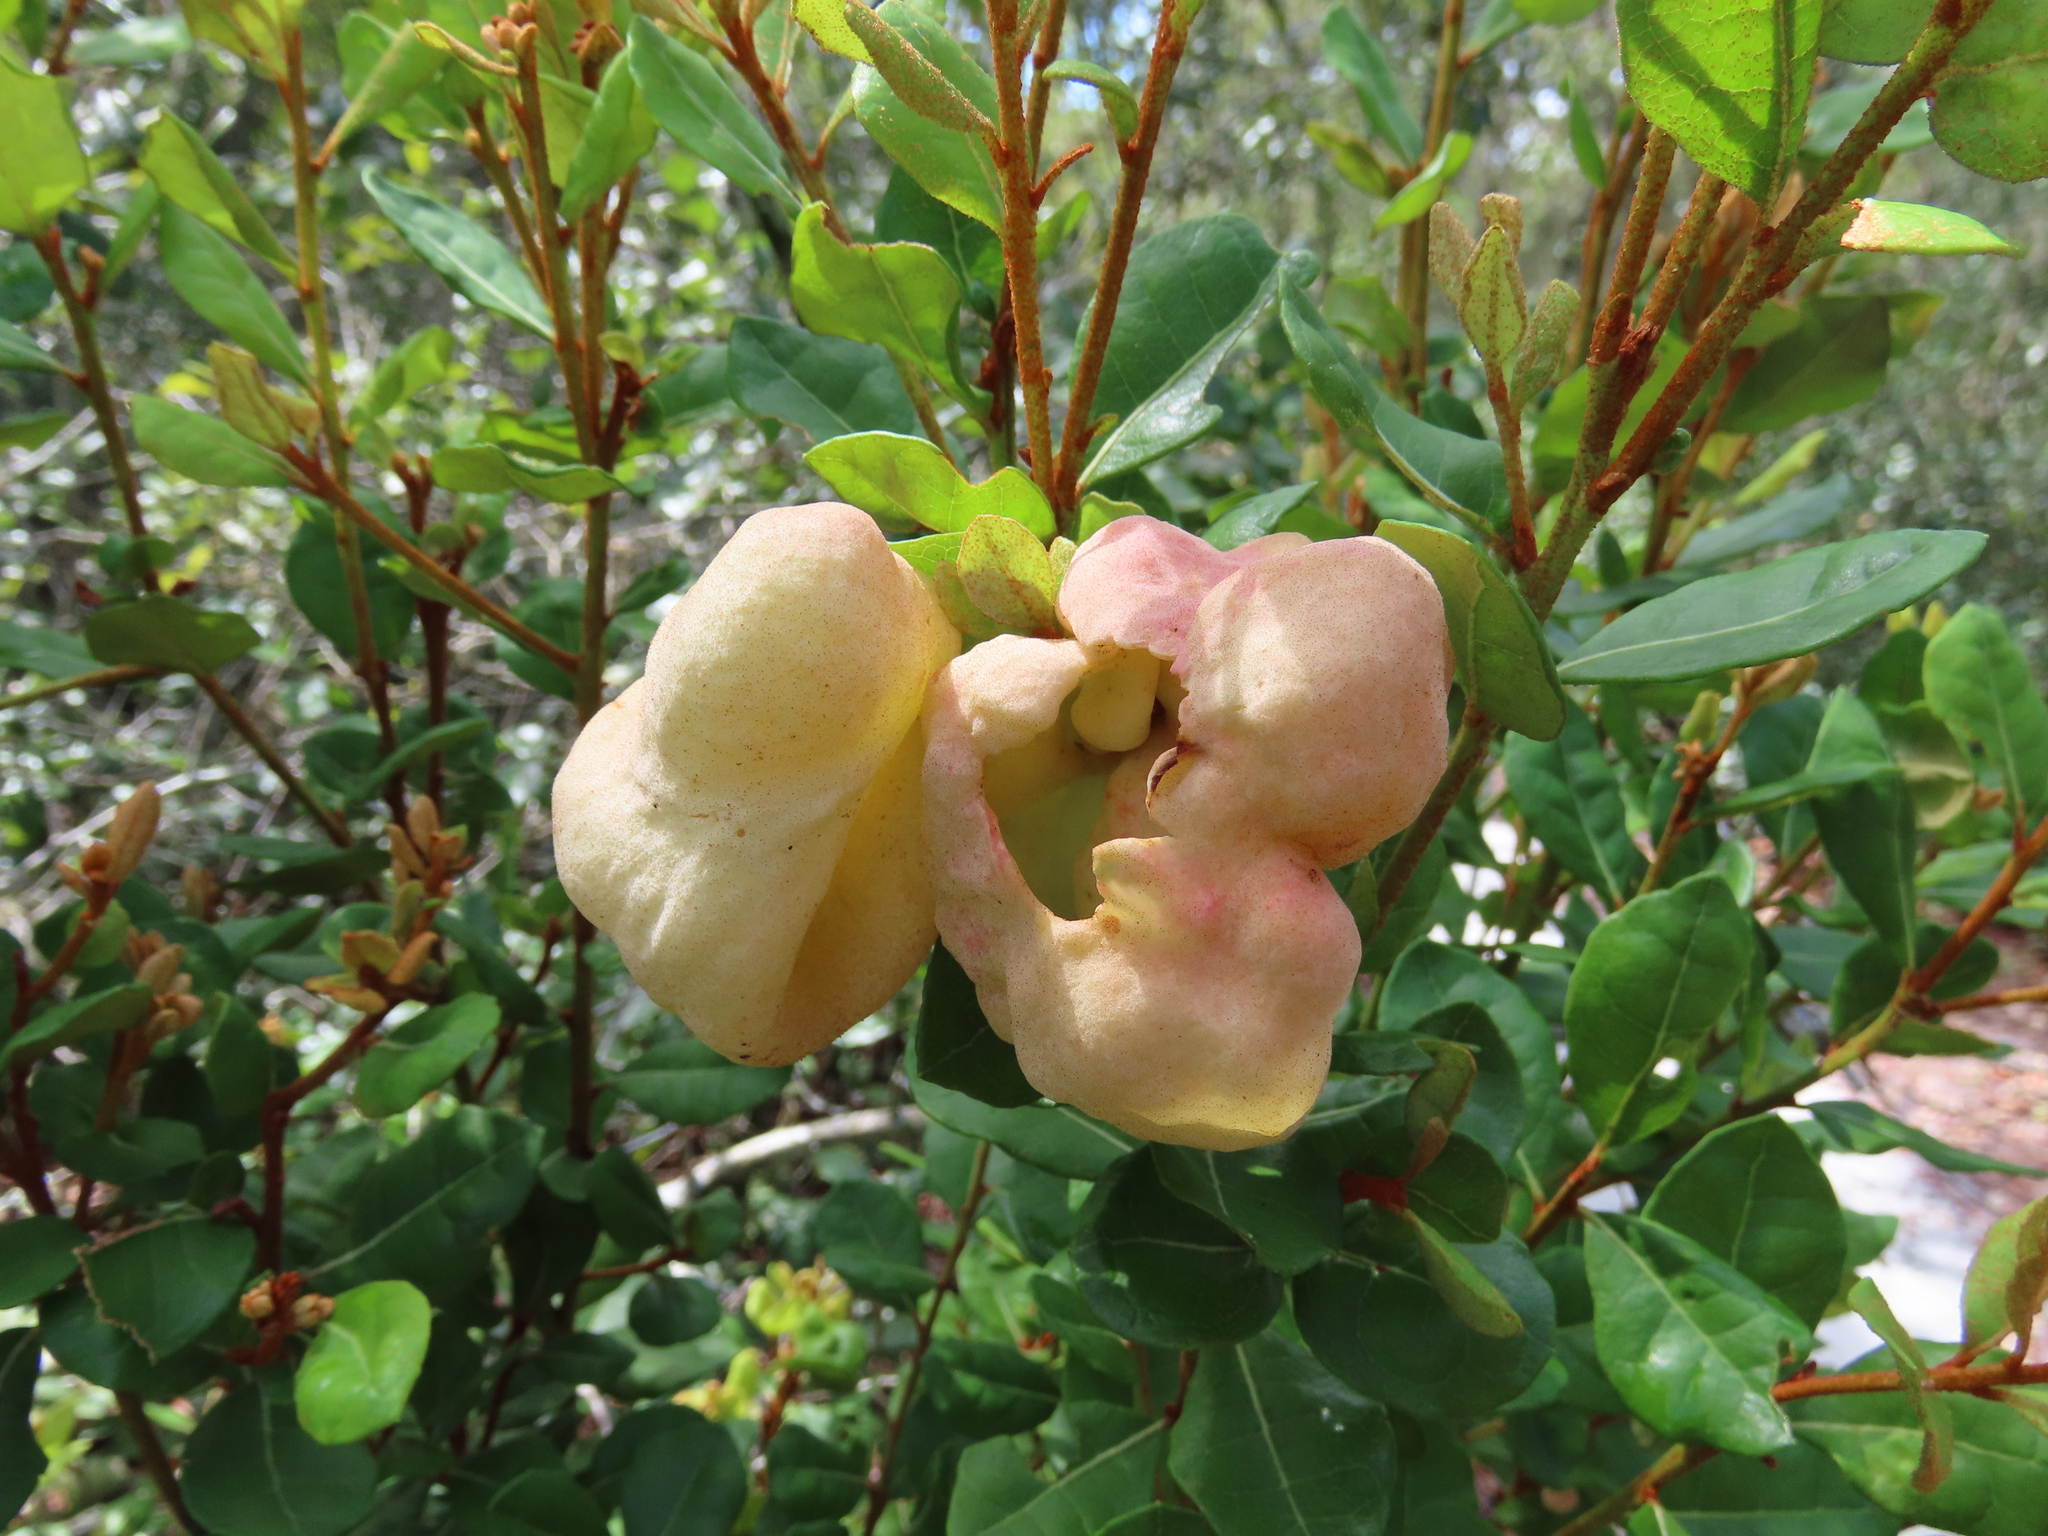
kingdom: Fungi
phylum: Basidiomycota
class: Exobasidiomycetes
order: Exobasidiales
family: Exobasidiaceae
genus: Exobasidium
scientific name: Exobasidium ferrugineae
